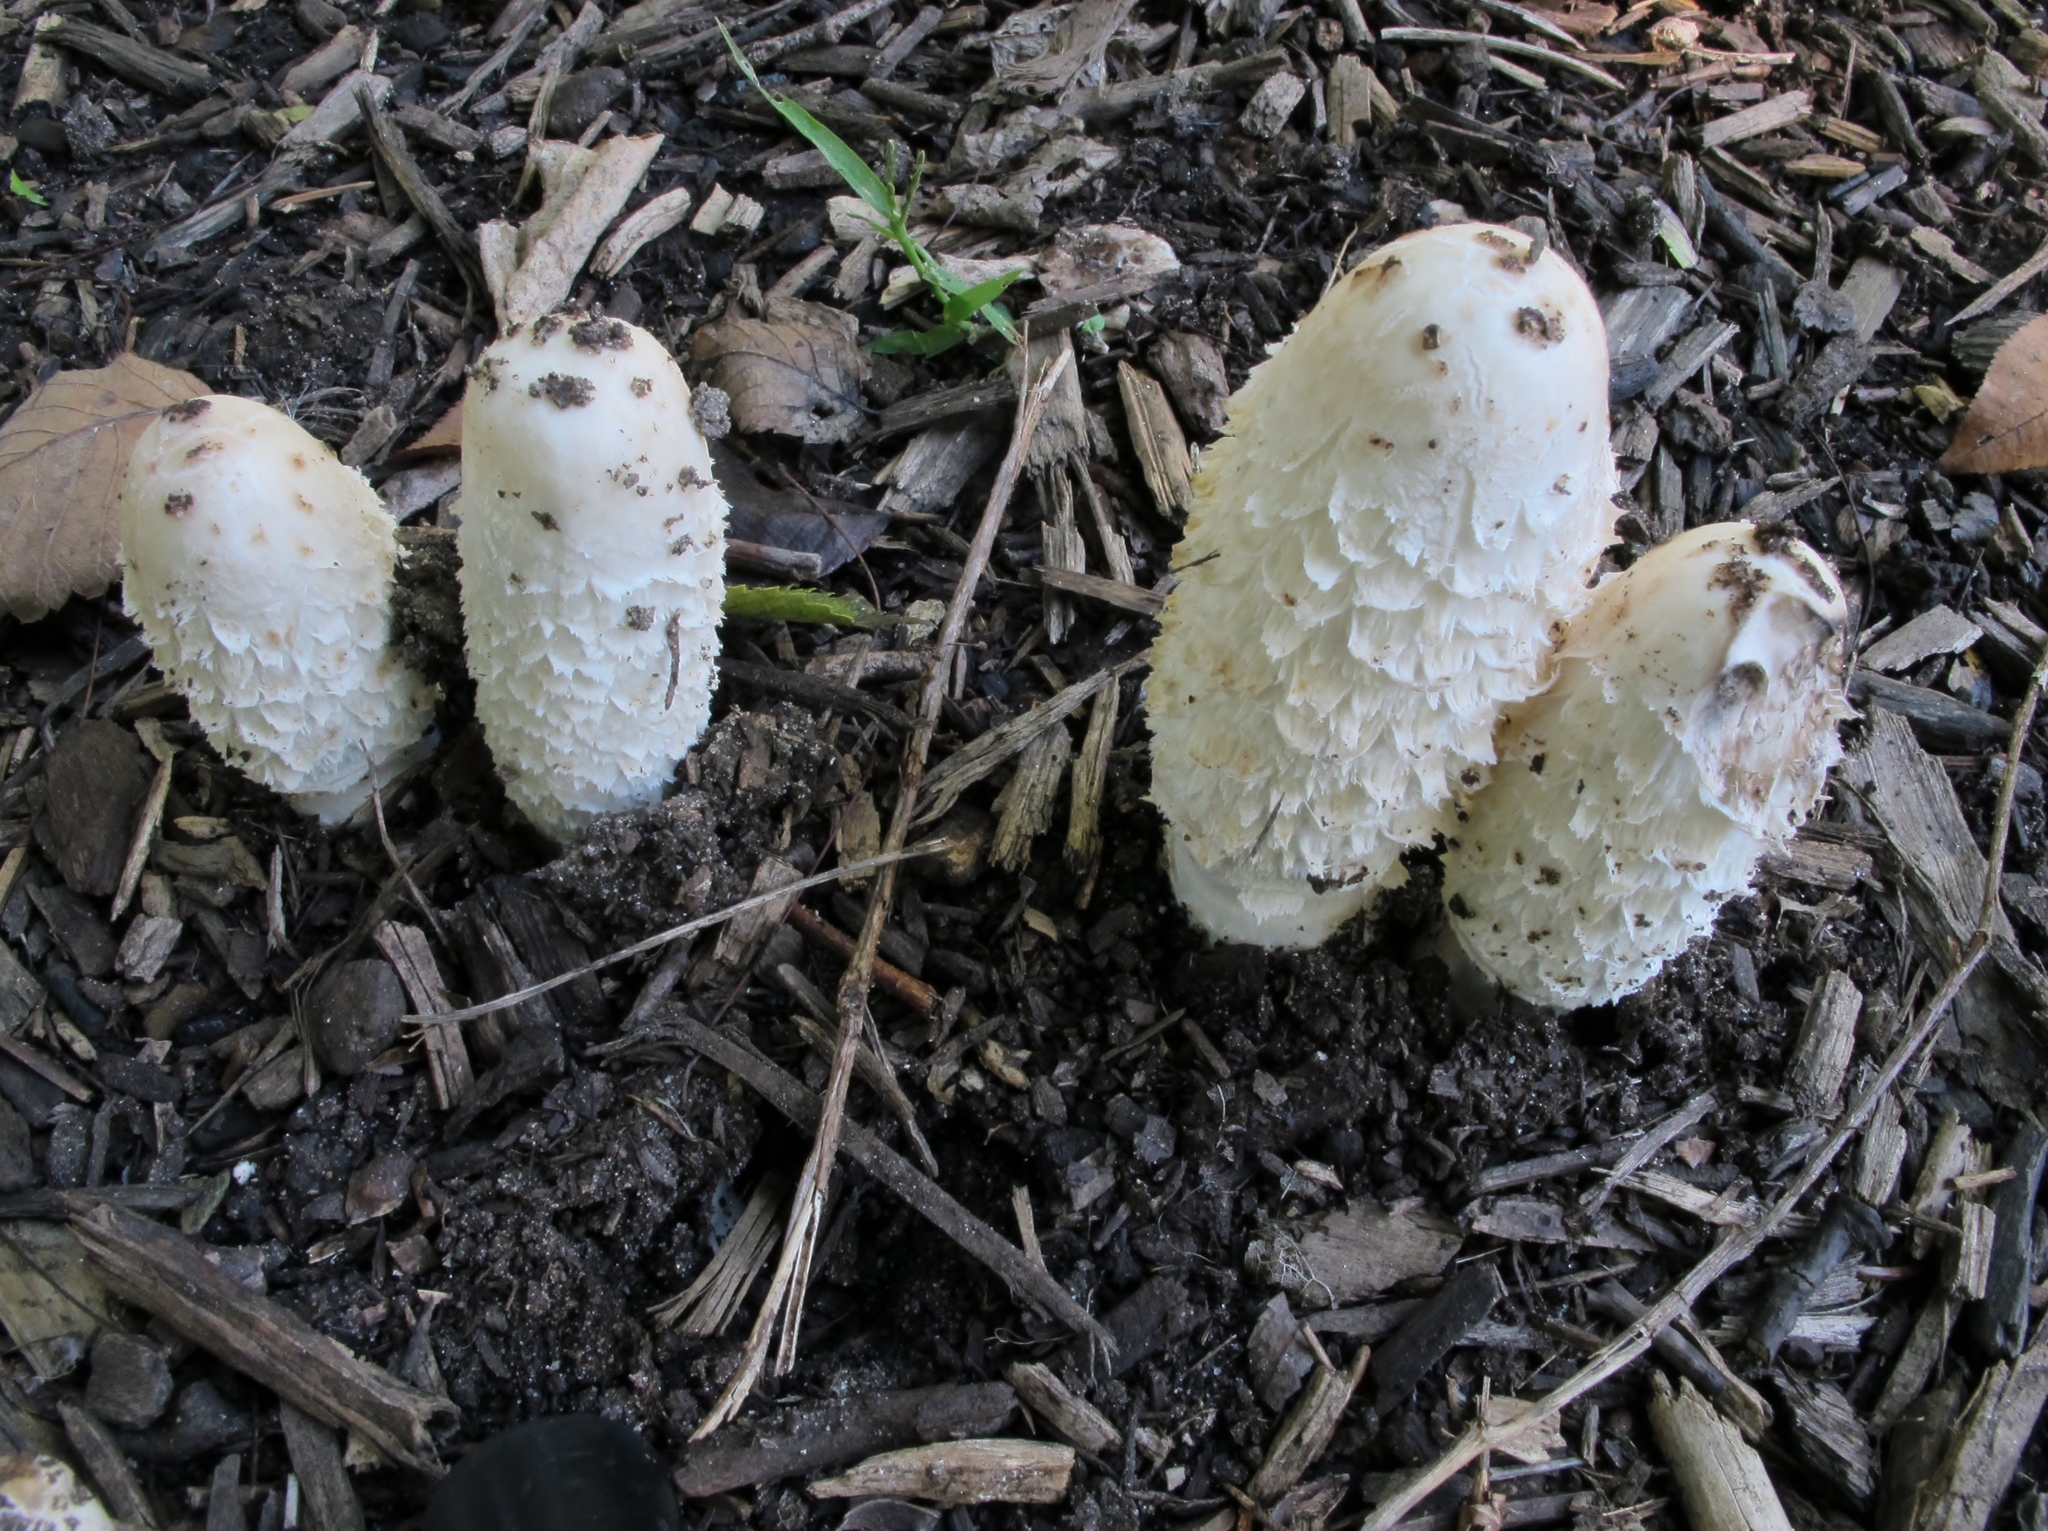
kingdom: Fungi
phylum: Basidiomycota
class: Agaricomycetes
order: Agaricales
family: Agaricaceae
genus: Coprinus
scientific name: Coprinus comatus
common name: Lawyer's wig
